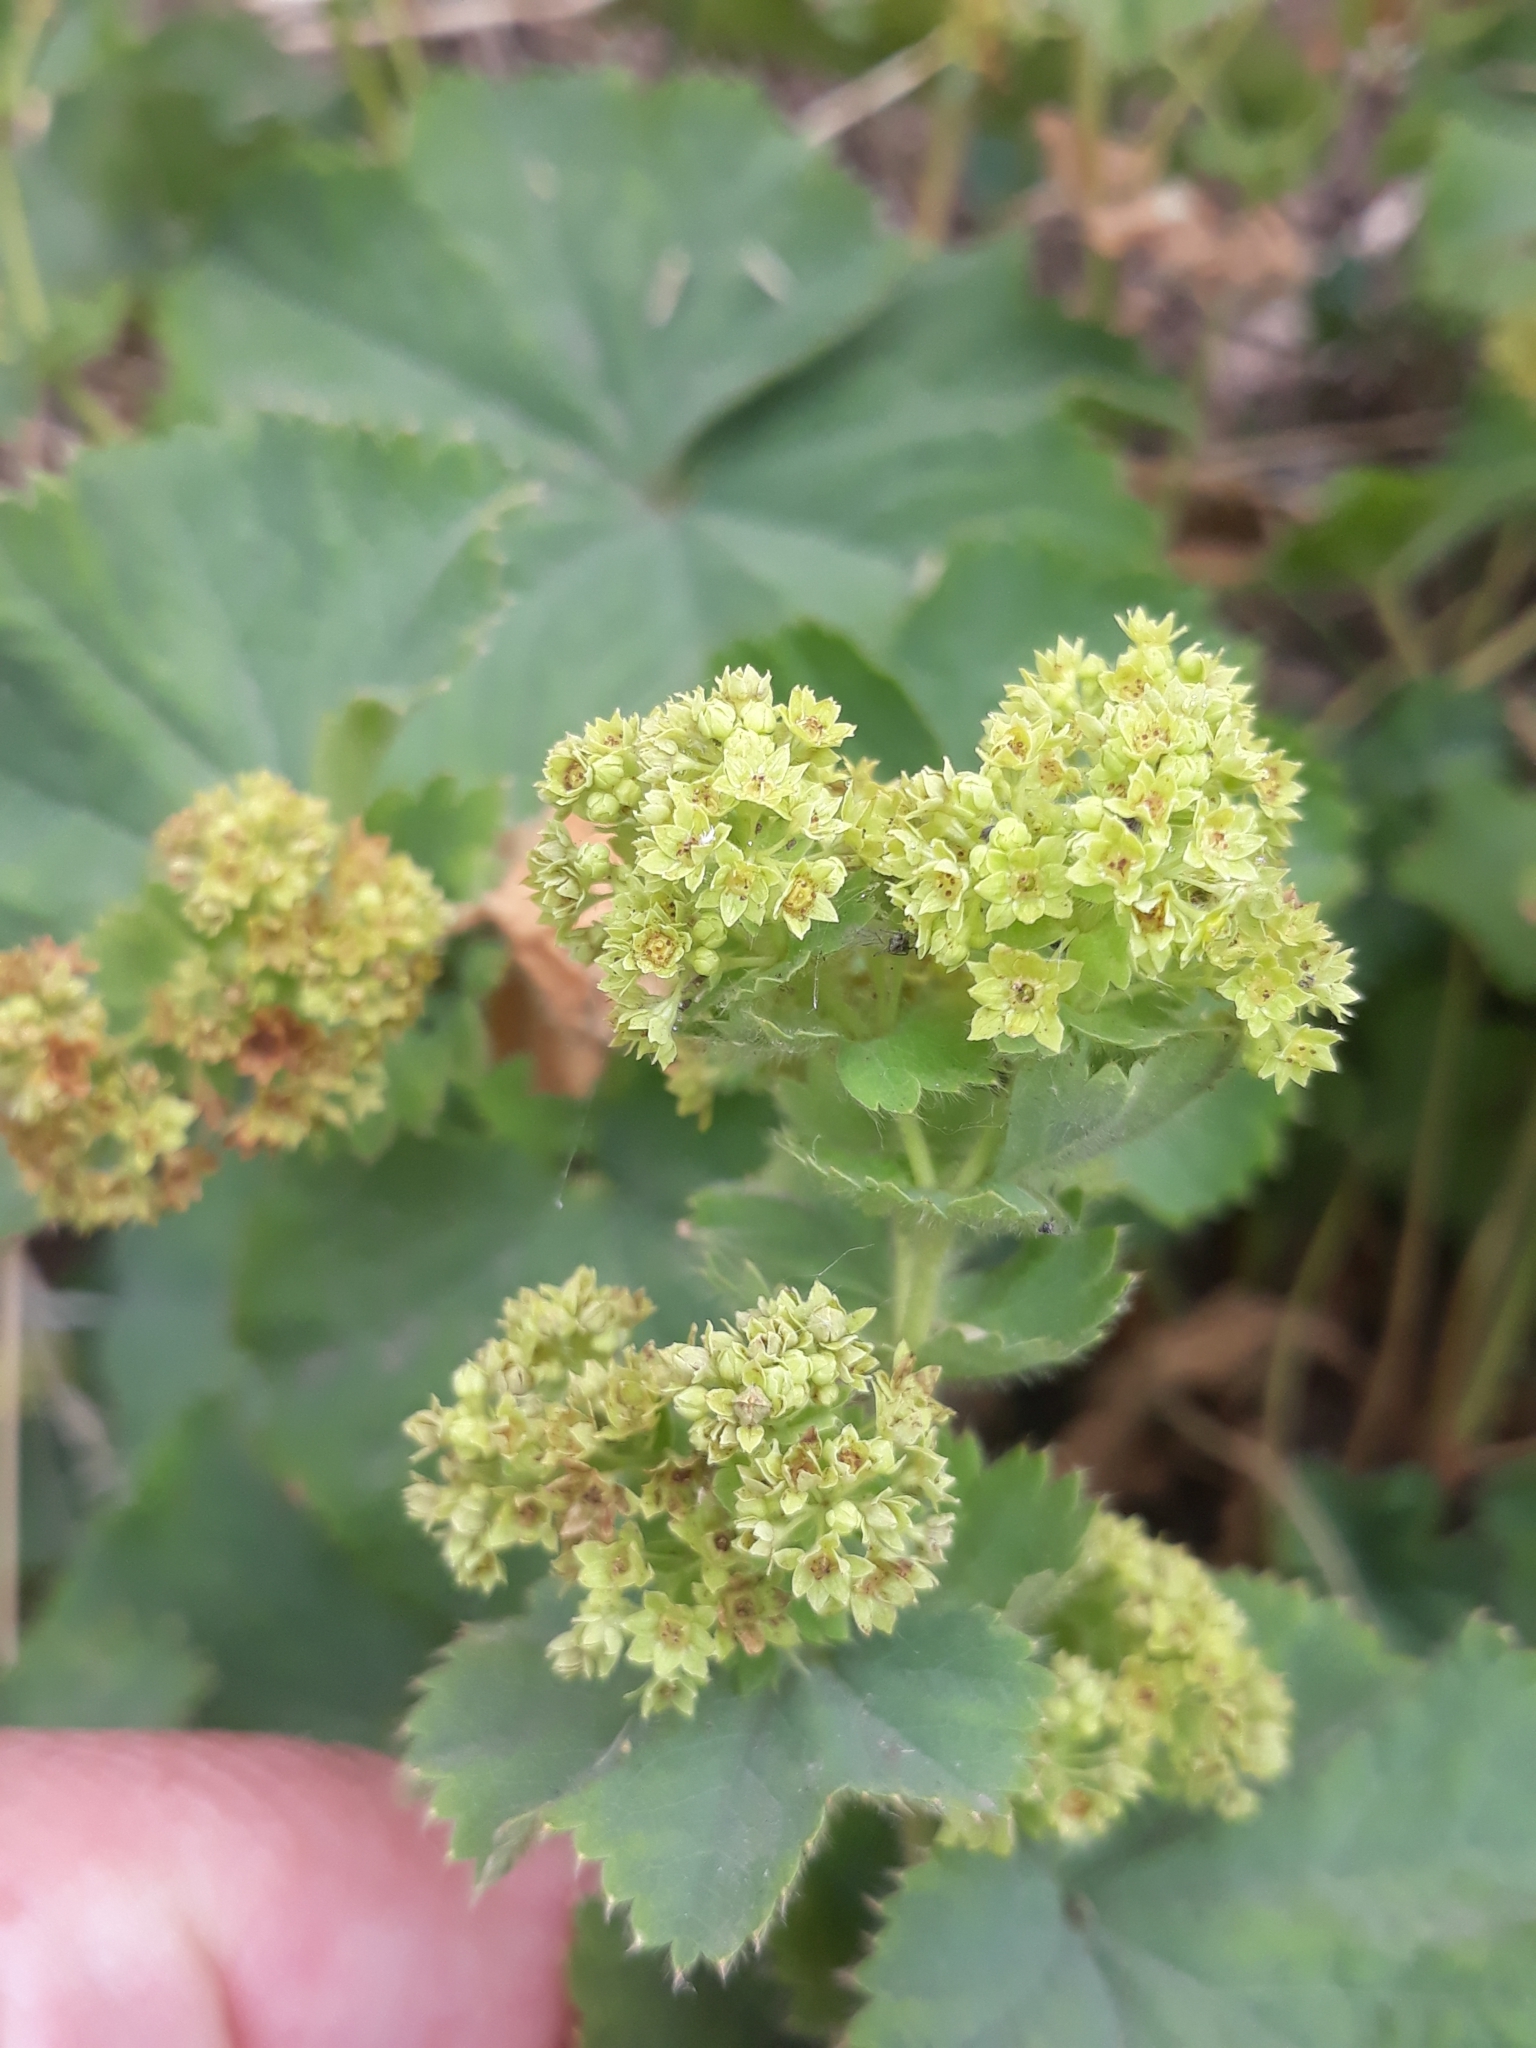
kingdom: Plantae
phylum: Tracheophyta
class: Magnoliopsida
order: Rosales
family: Rosaceae
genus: Alchemilla
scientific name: Alchemilla mollis
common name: Lady's-mantle
